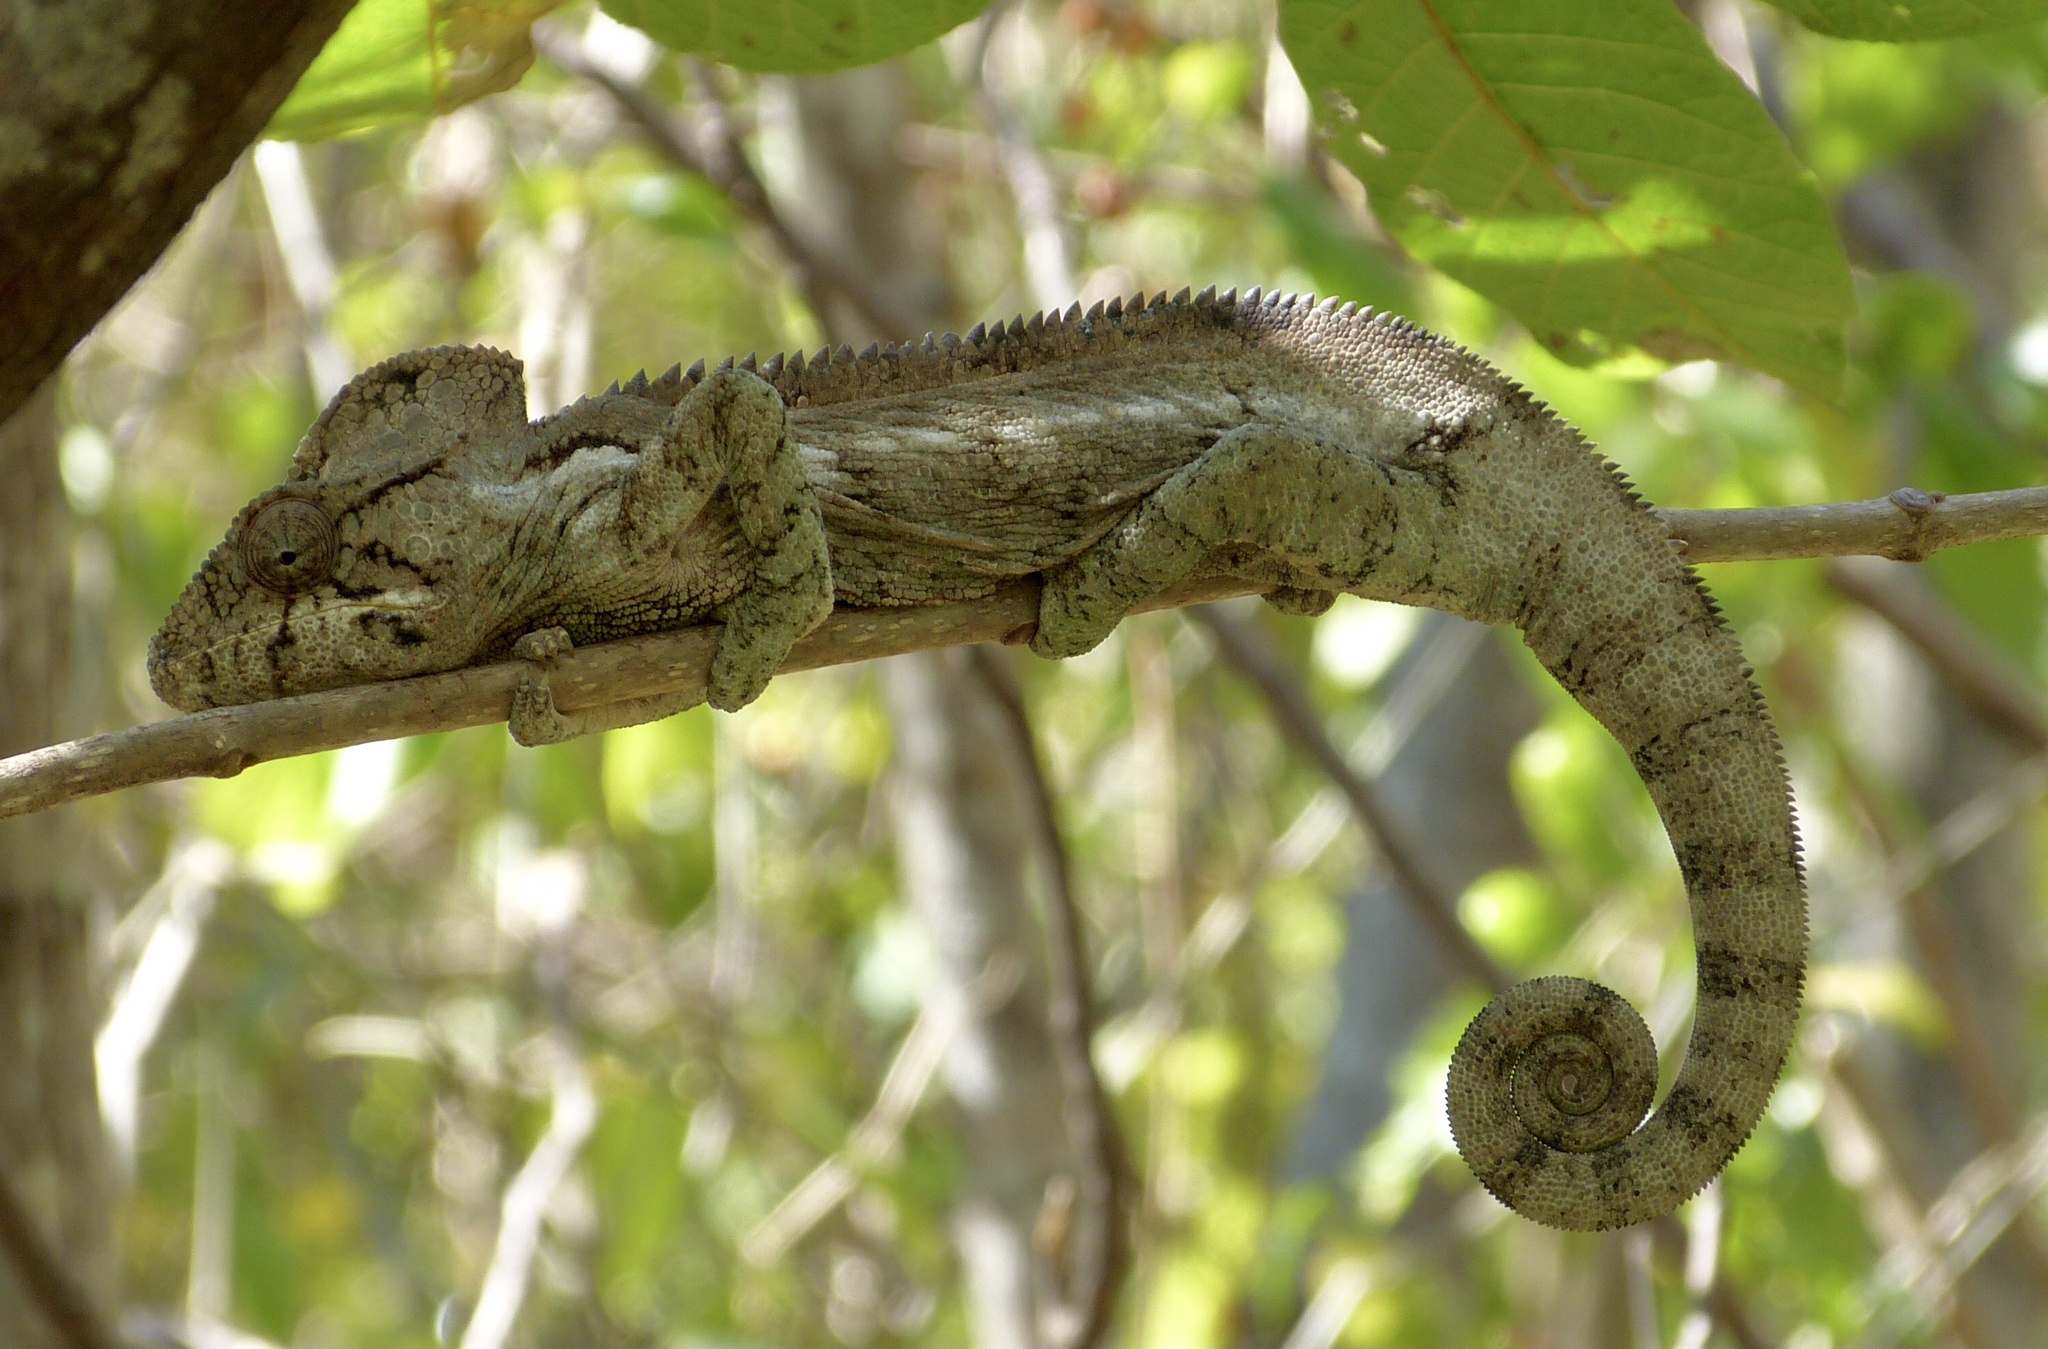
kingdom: Animalia
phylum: Chordata
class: Squamata
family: Chamaeleonidae
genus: Furcifer
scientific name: Furcifer oustaleti
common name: Oustalet's chameleon
